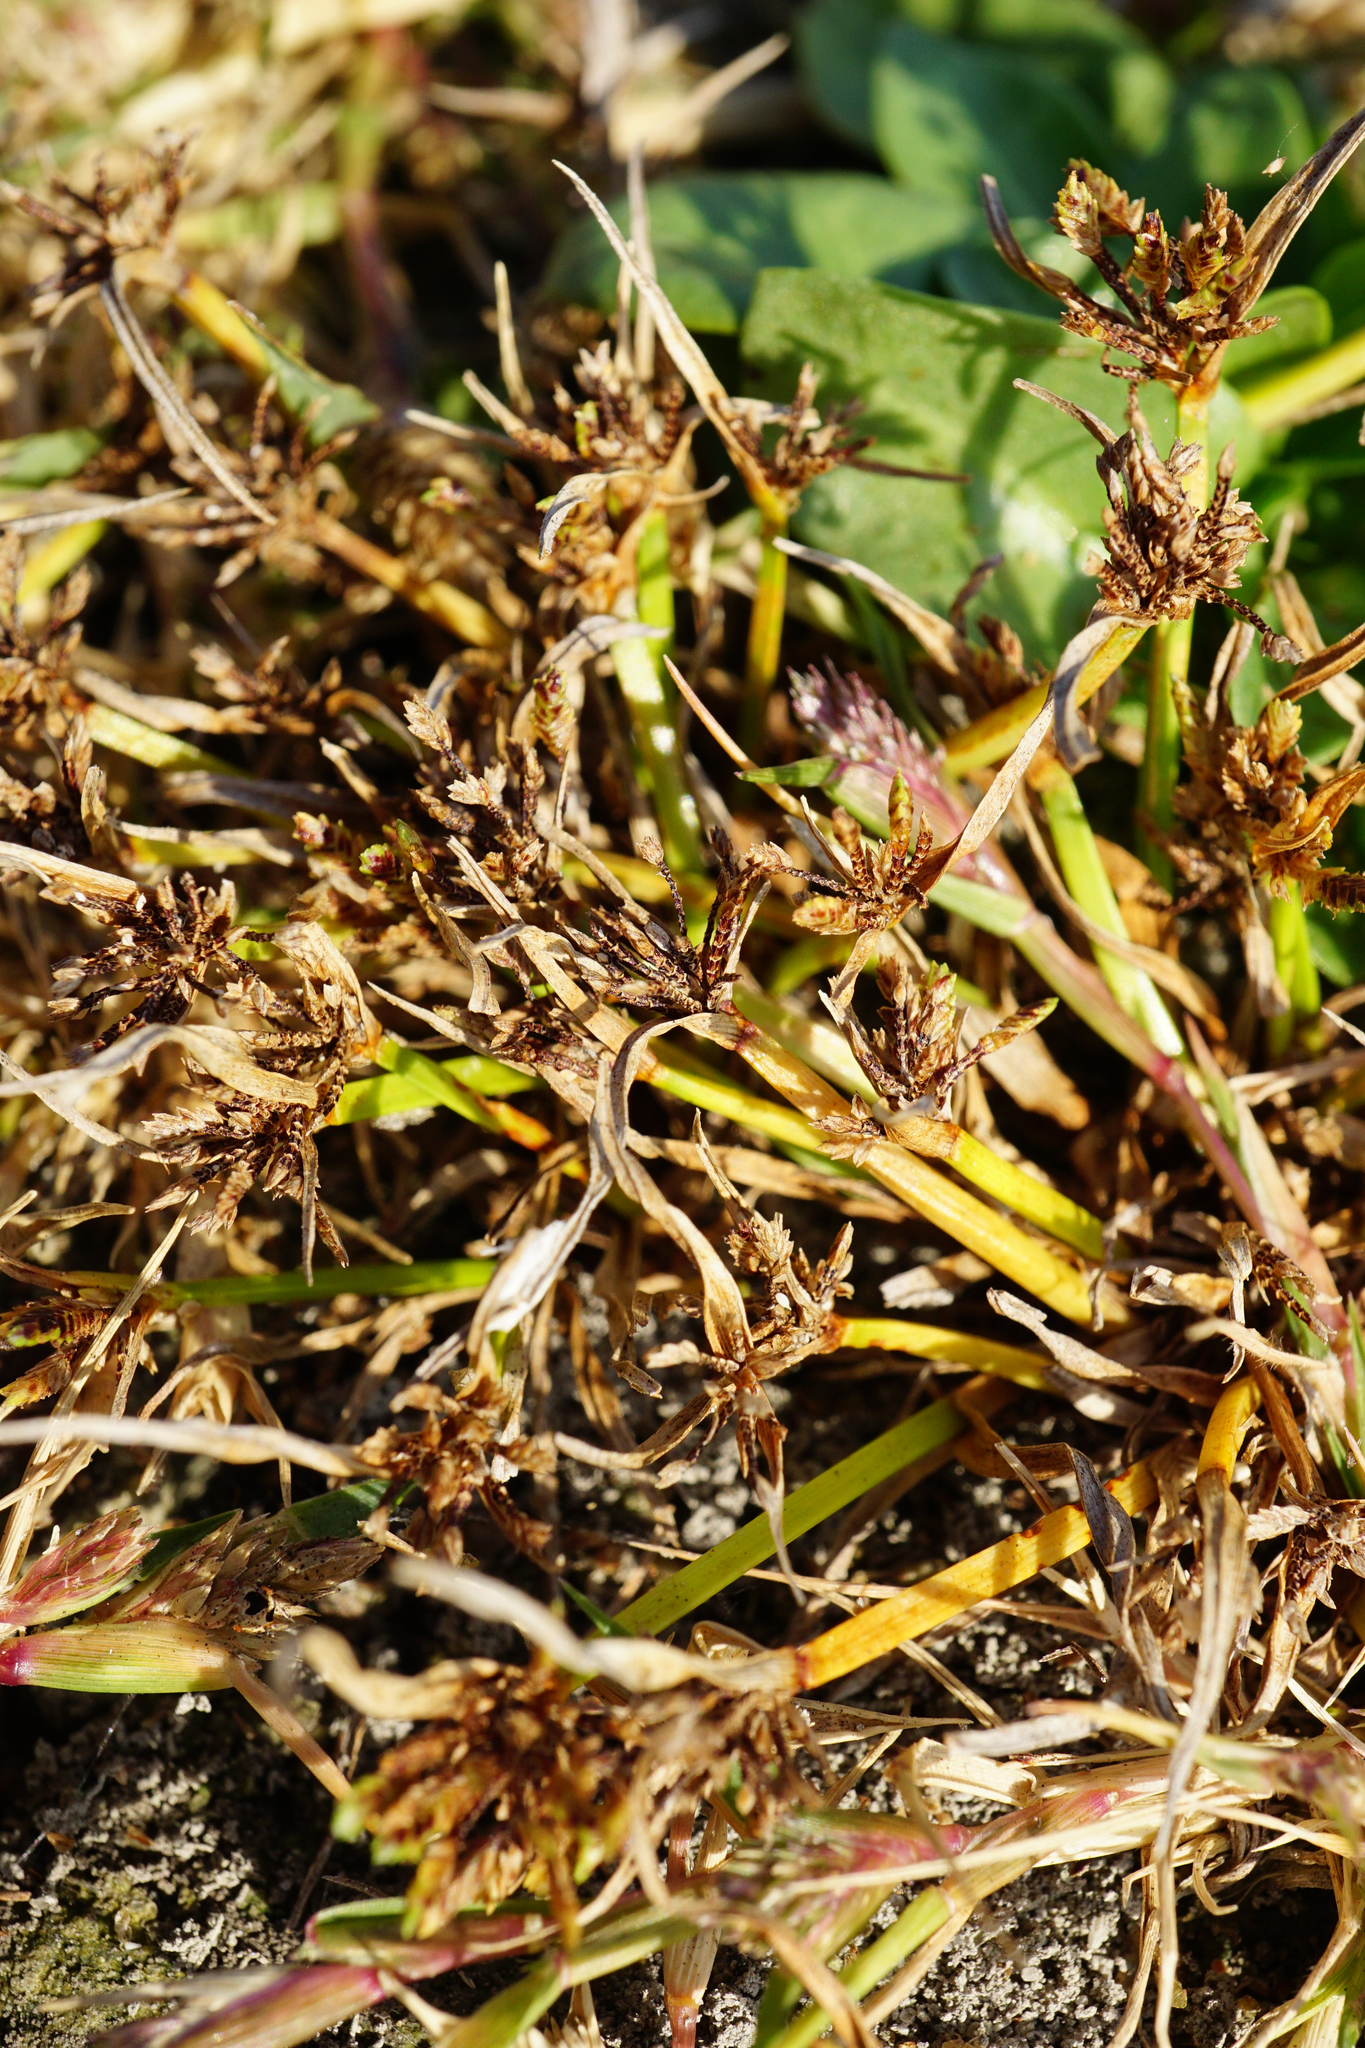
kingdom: Plantae
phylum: Tracheophyta
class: Liliopsida
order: Poales
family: Cyperaceae
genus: Cyperus
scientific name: Cyperus fuscus
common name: Brown galingale
